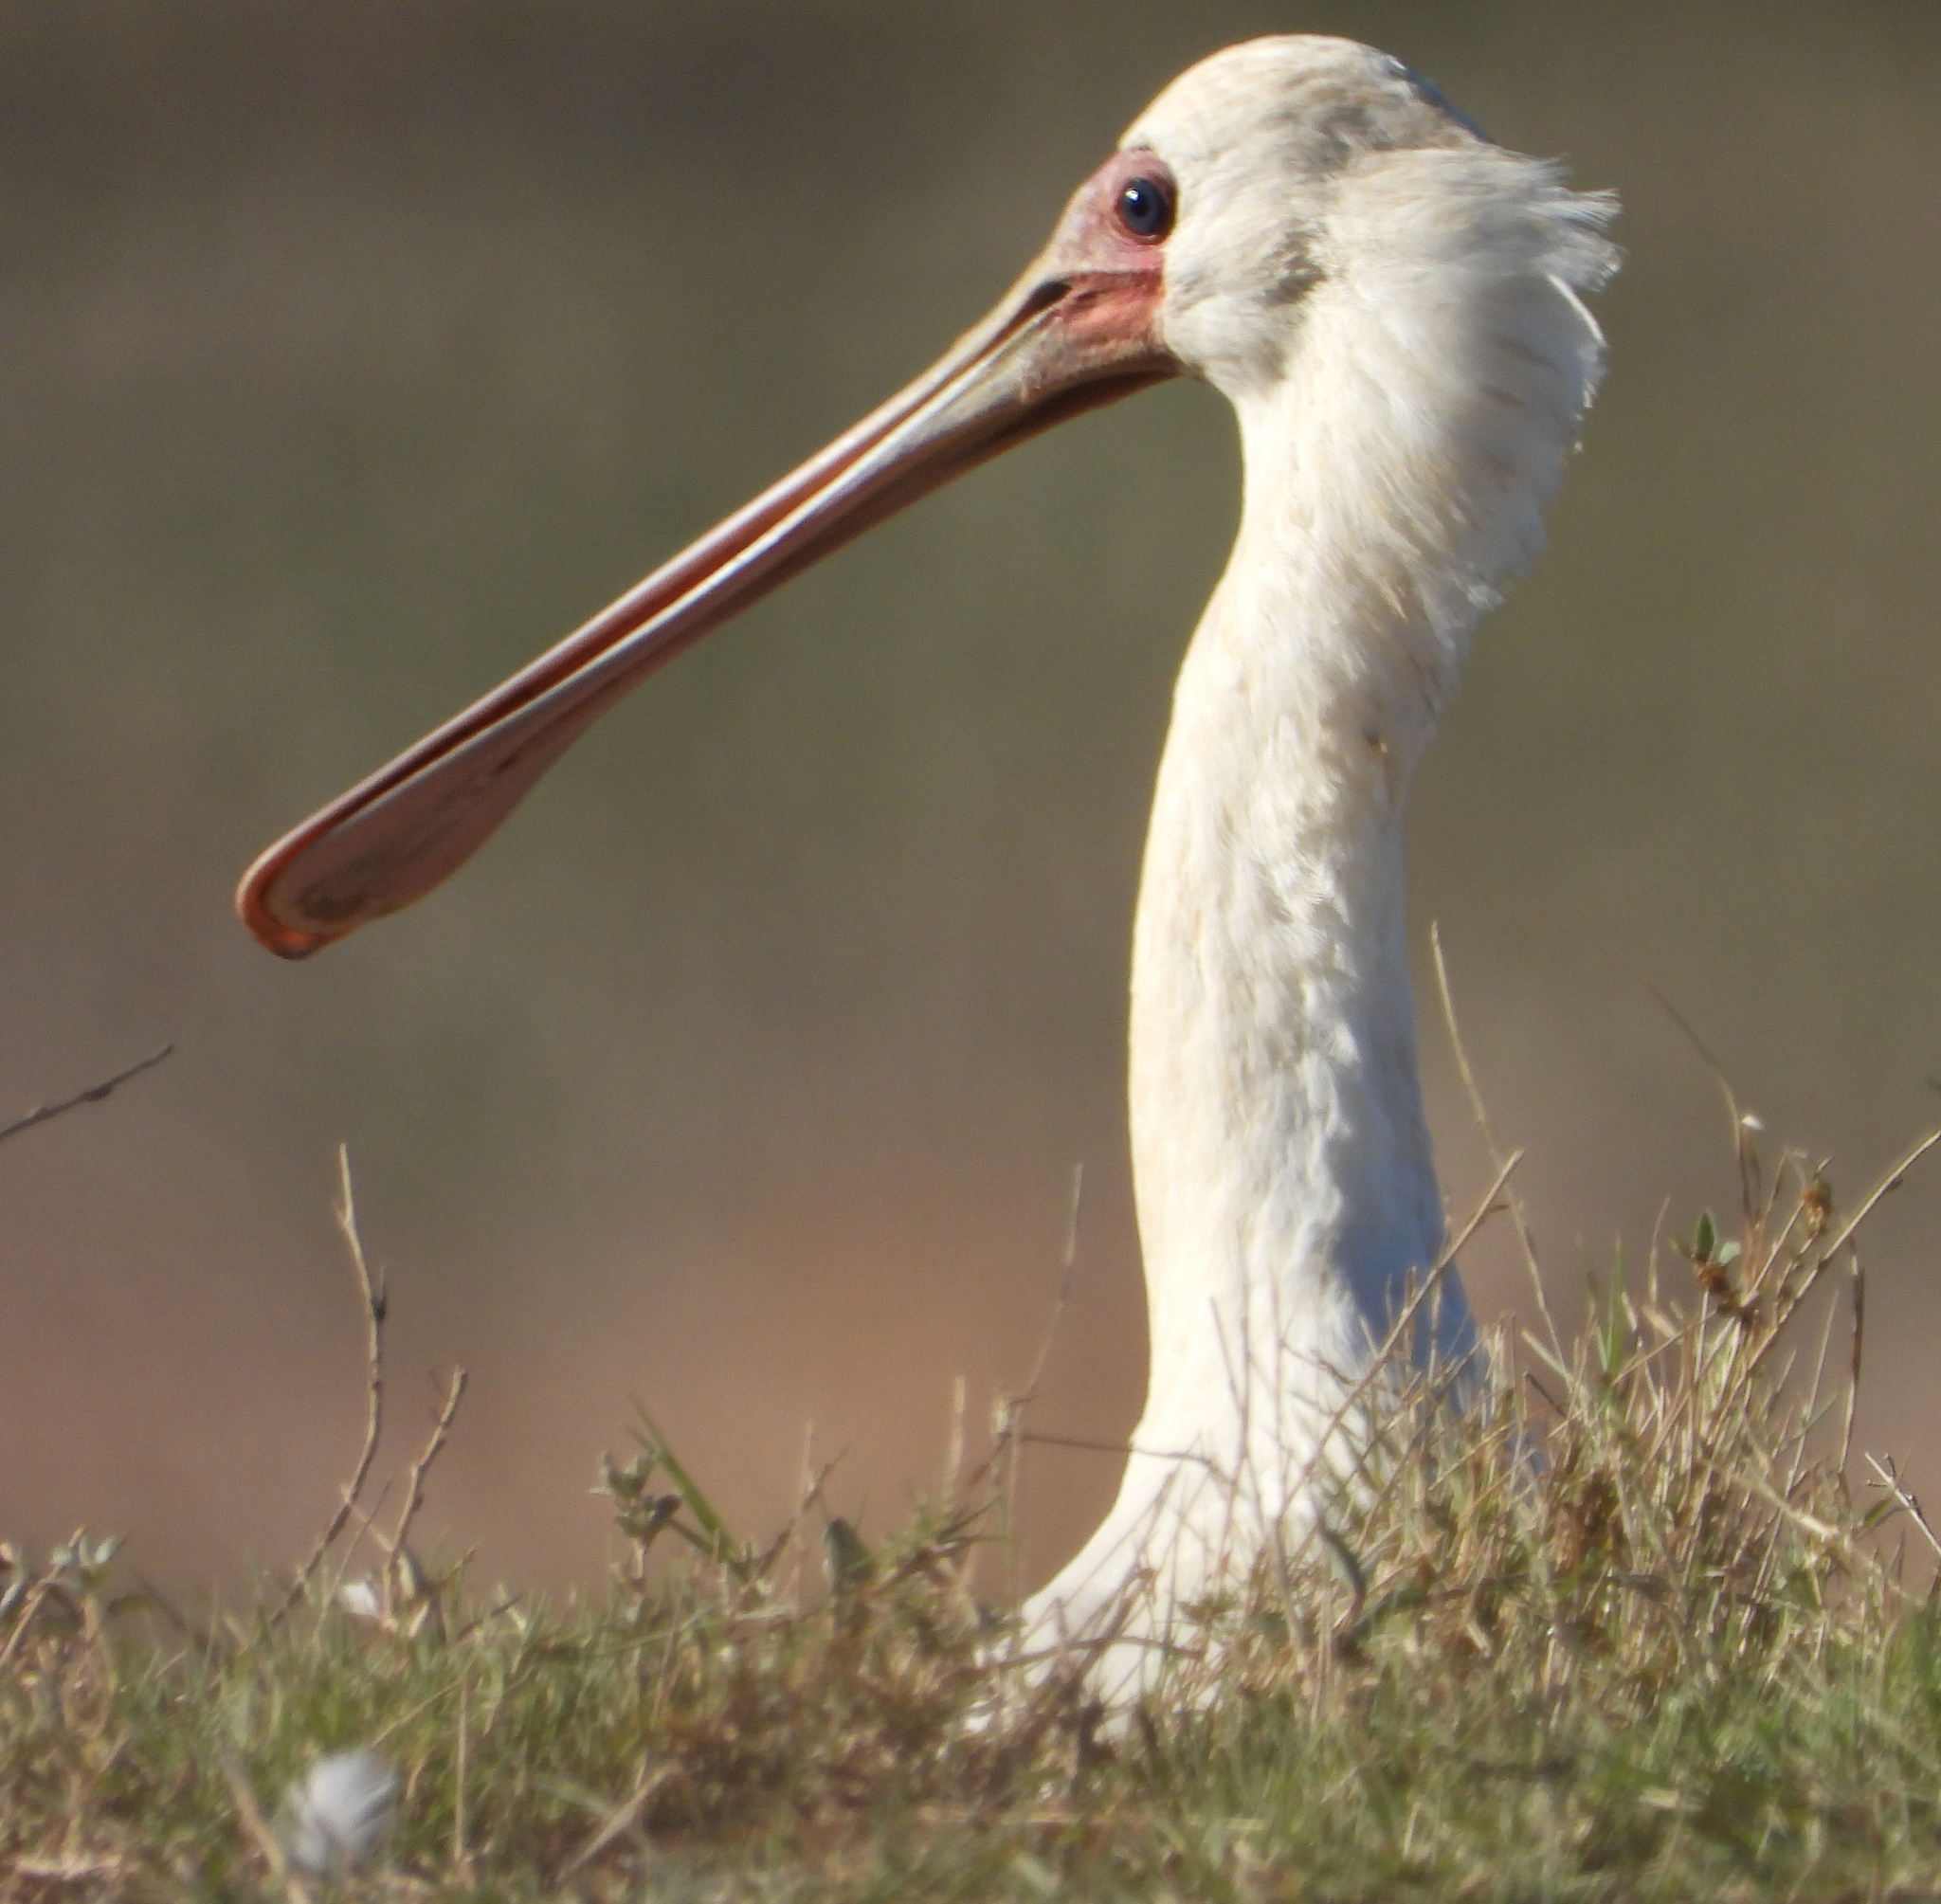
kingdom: Animalia
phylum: Chordata
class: Aves
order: Pelecaniformes
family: Threskiornithidae
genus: Platalea
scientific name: Platalea alba
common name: African spoonbill
